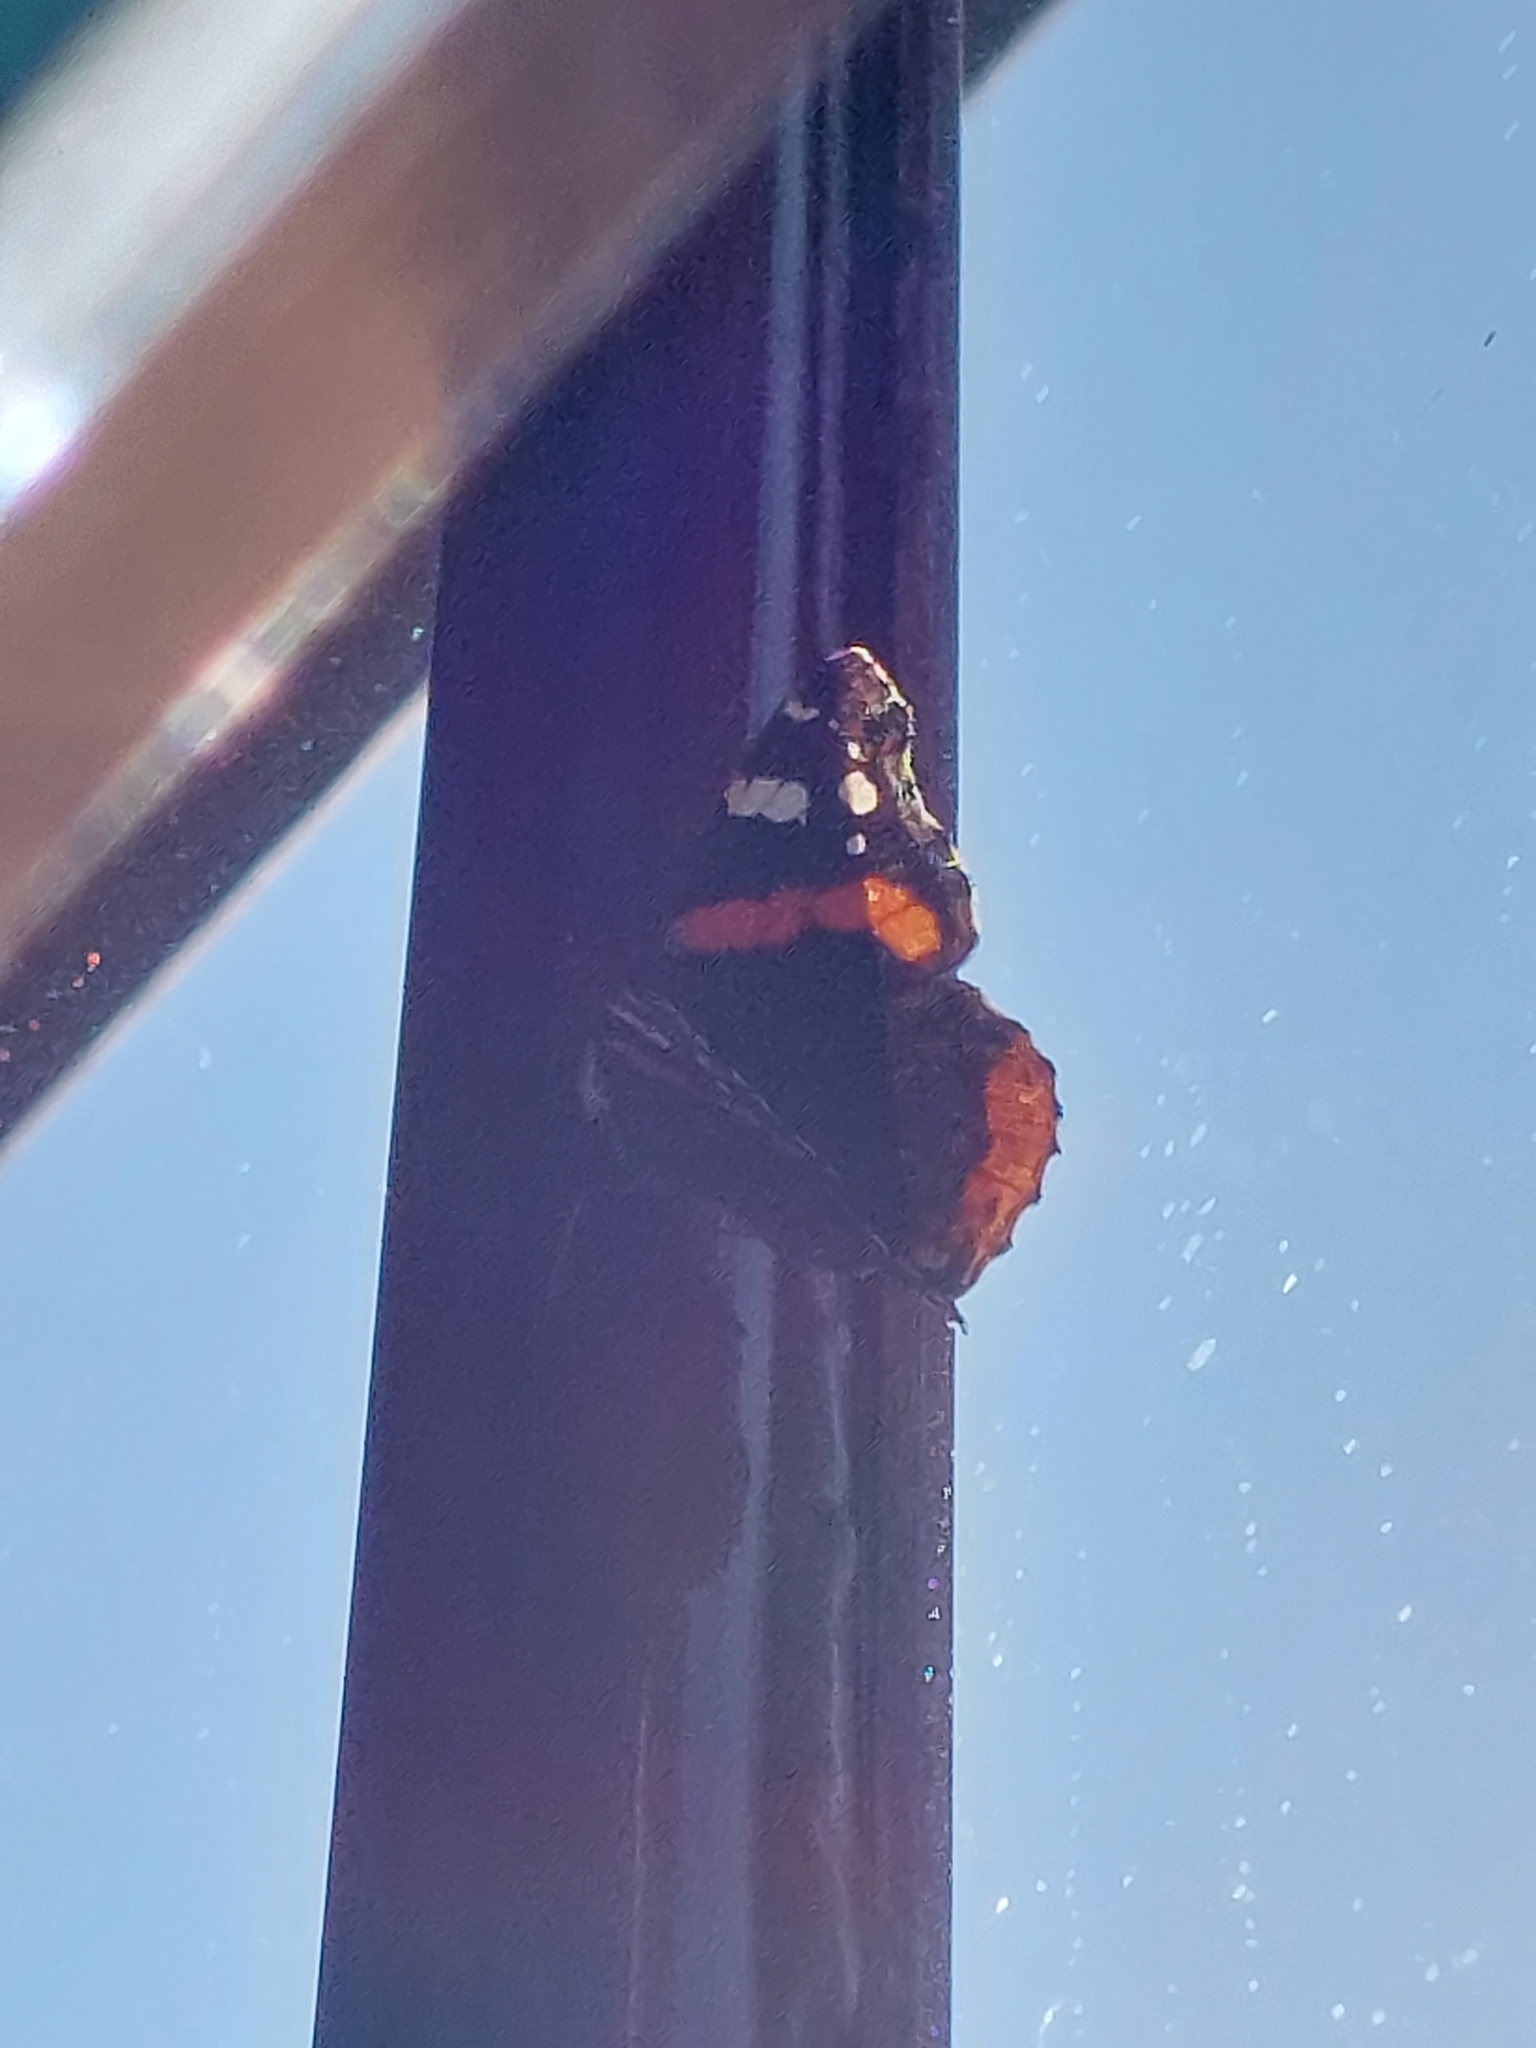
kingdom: Animalia
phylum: Arthropoda
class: Insecta
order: Lepidoptera
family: Nymphalidae
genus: Vanessa
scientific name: Vanessa atalanta
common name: Red admiral
